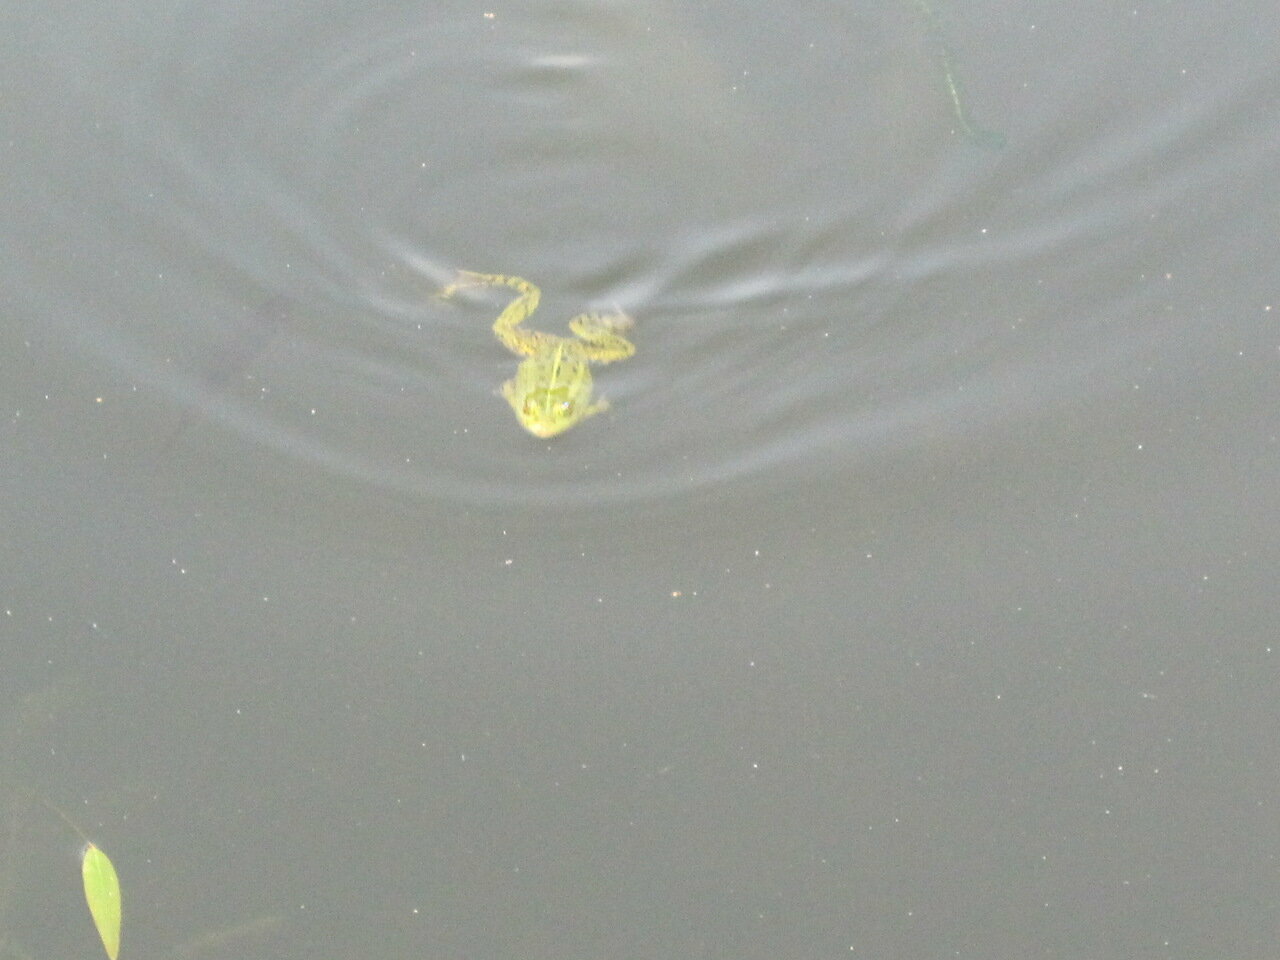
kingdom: Animalia
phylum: Chordata
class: Amphibia
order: Anura
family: Ranidae
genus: Pelophylax
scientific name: Pelophylax lessonae
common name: Pool frog
